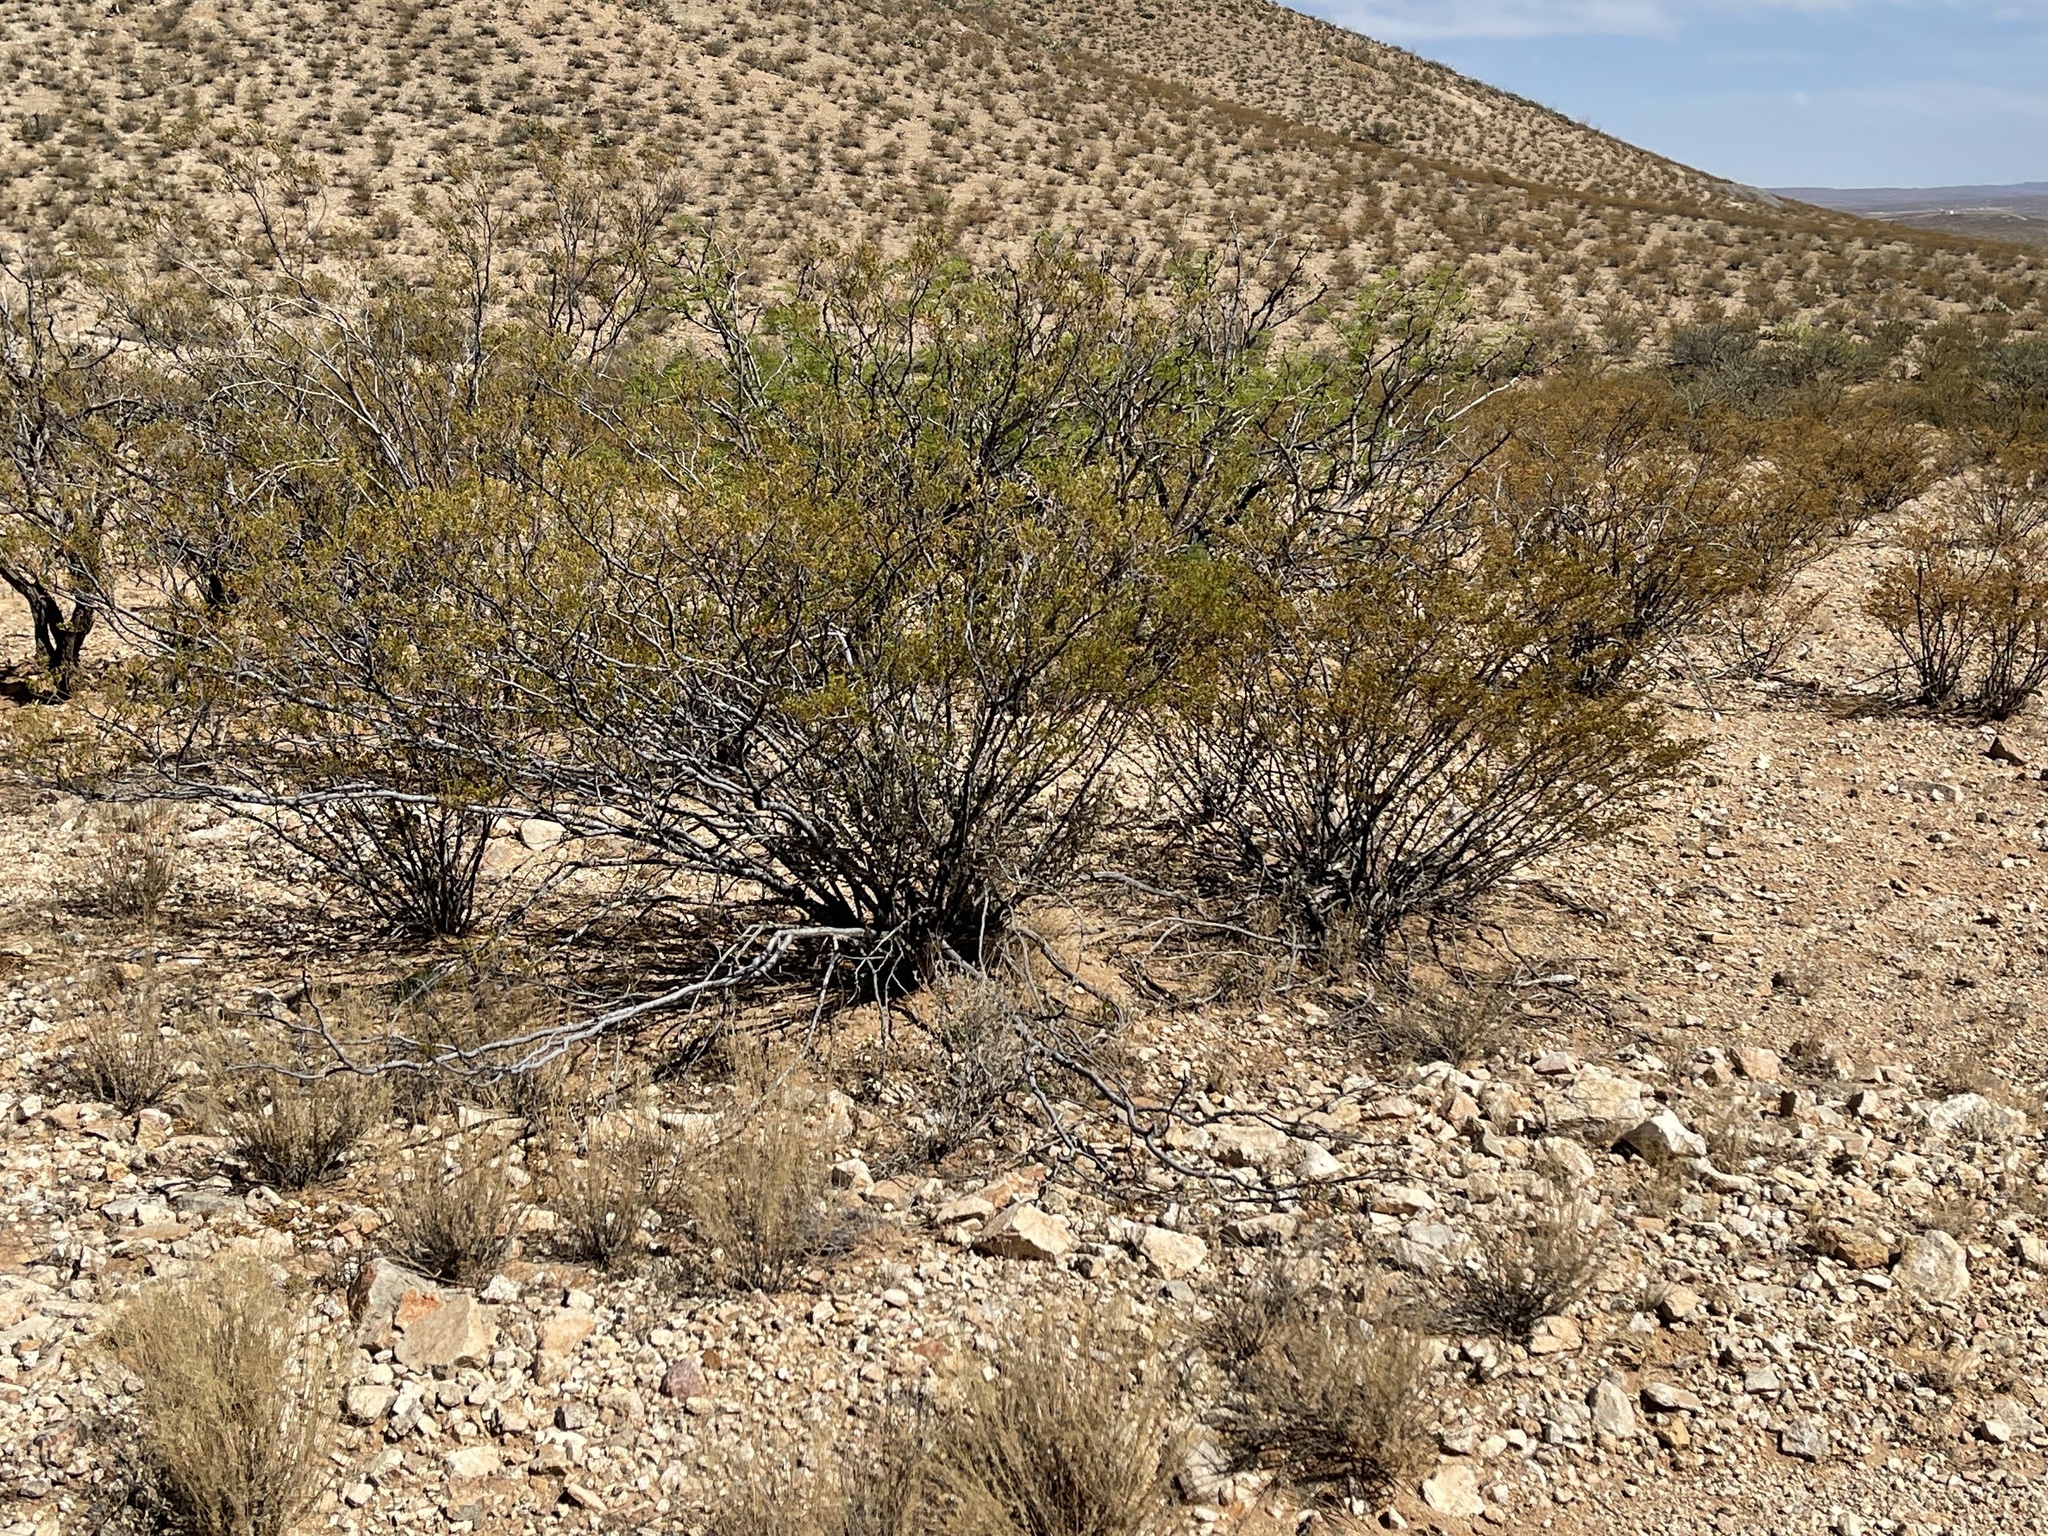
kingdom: Plantae
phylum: Tracheophyta
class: Magnoliopsida
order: Zygophyllales
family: Zygophyllaceae
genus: Larrea
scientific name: Larrea tridentata
